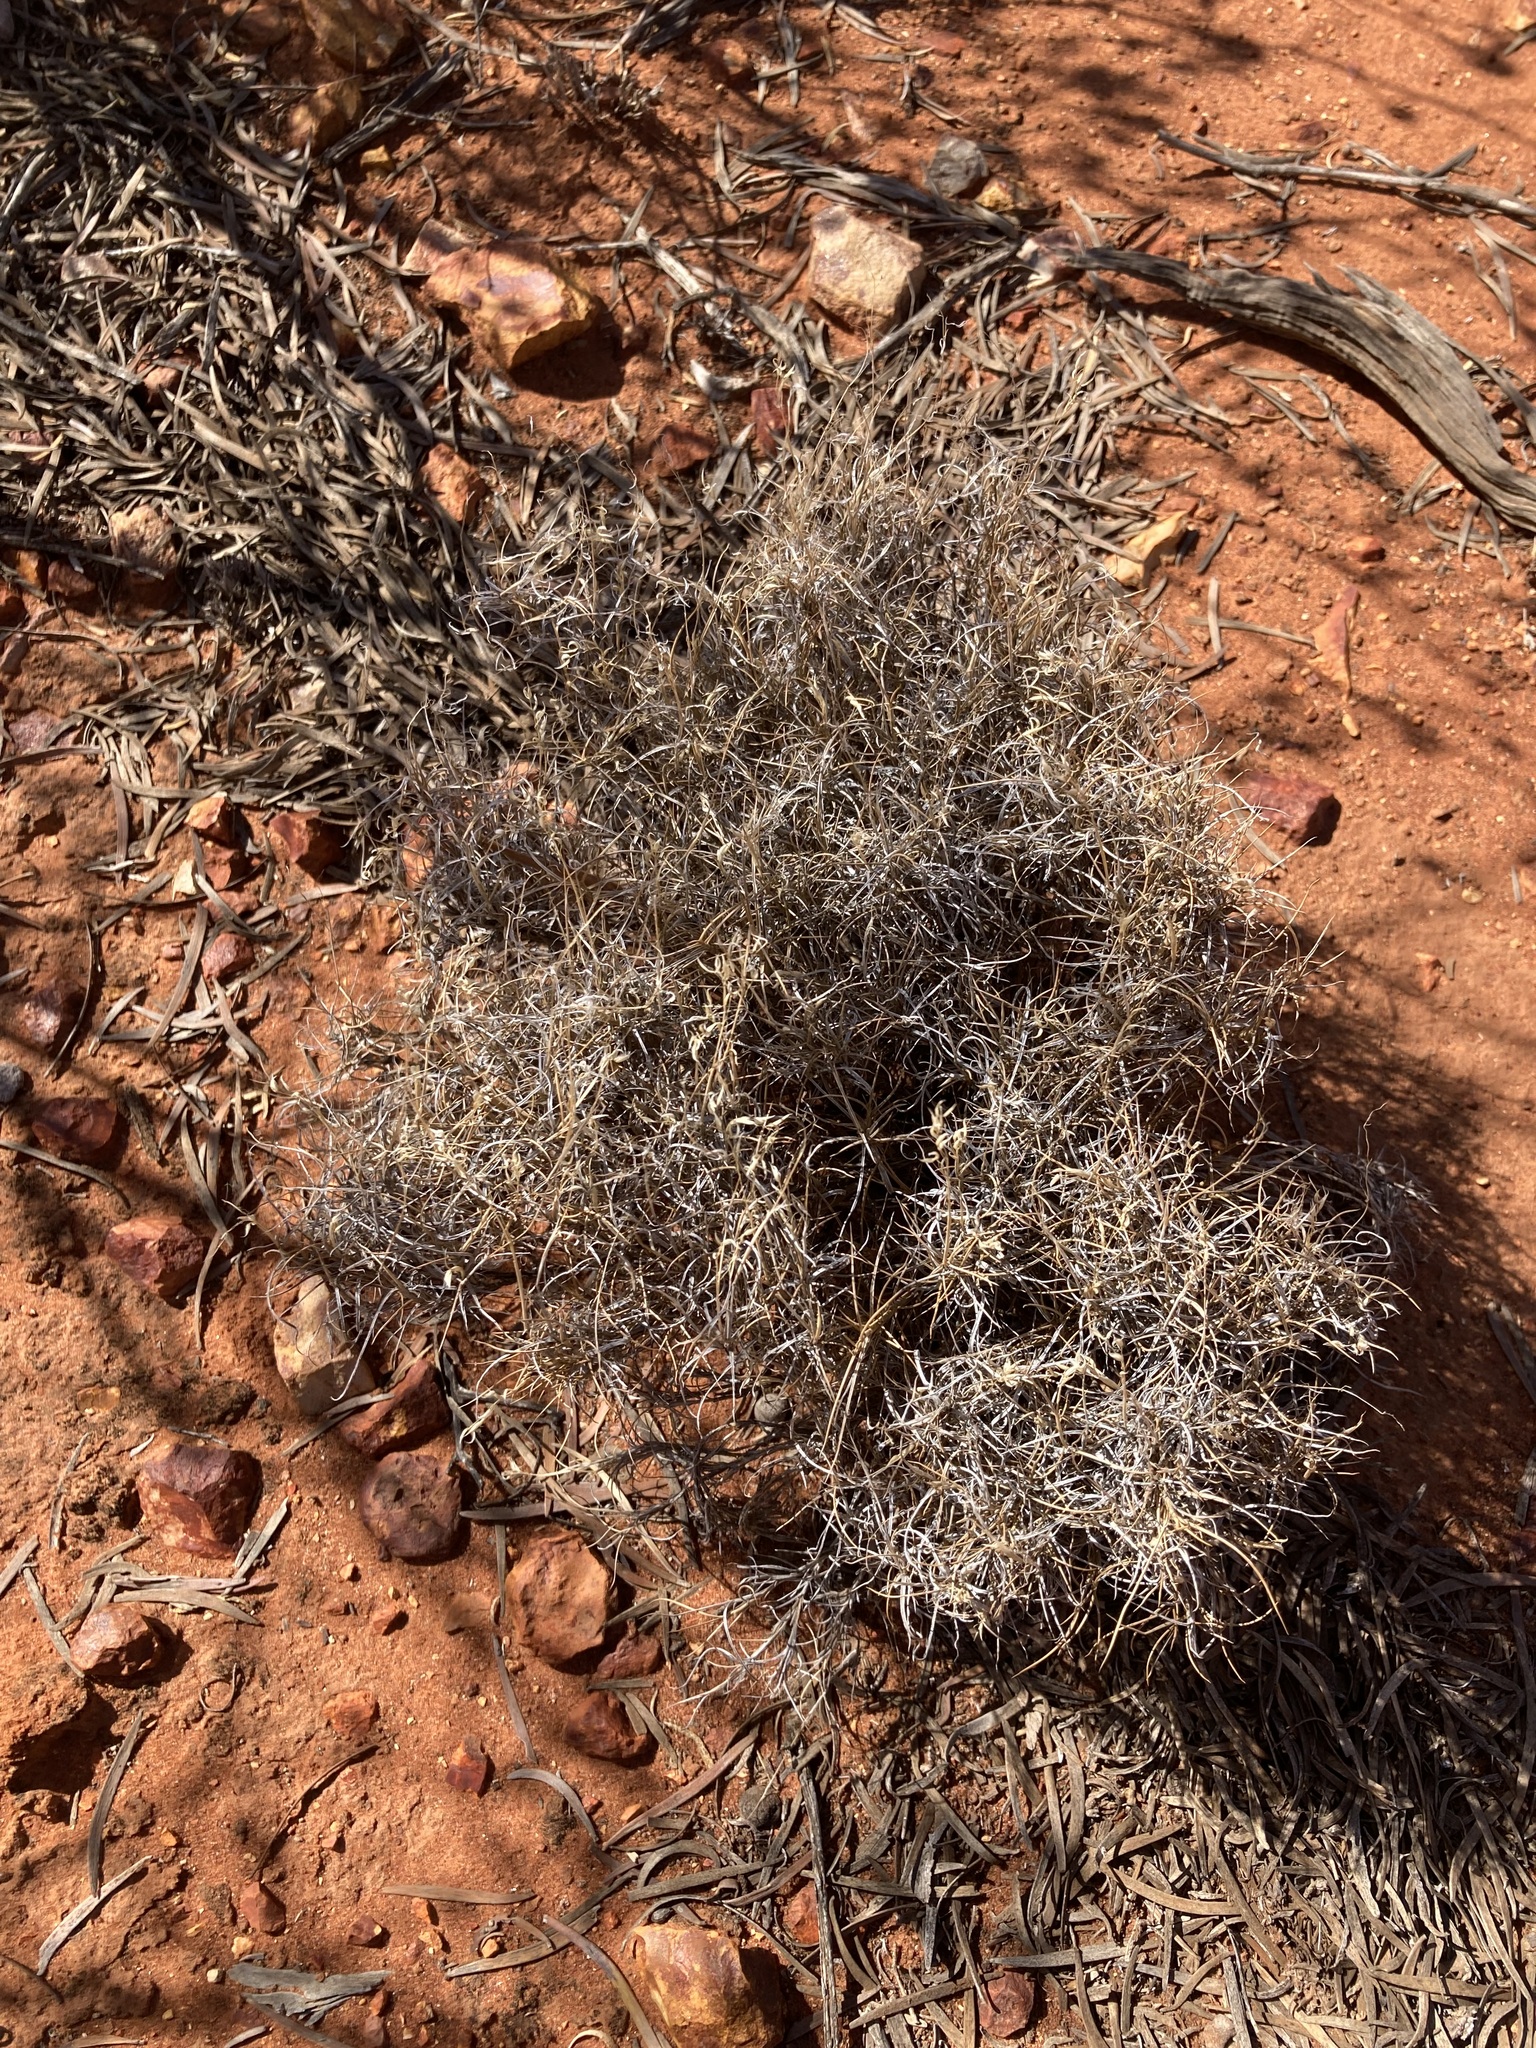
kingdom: Plantae
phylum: Tracheophyta
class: Liliopsida
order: Poales
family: Poaceae
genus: Eriachne
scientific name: Eriachne mucronata
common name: Mountain wanderrie grass
